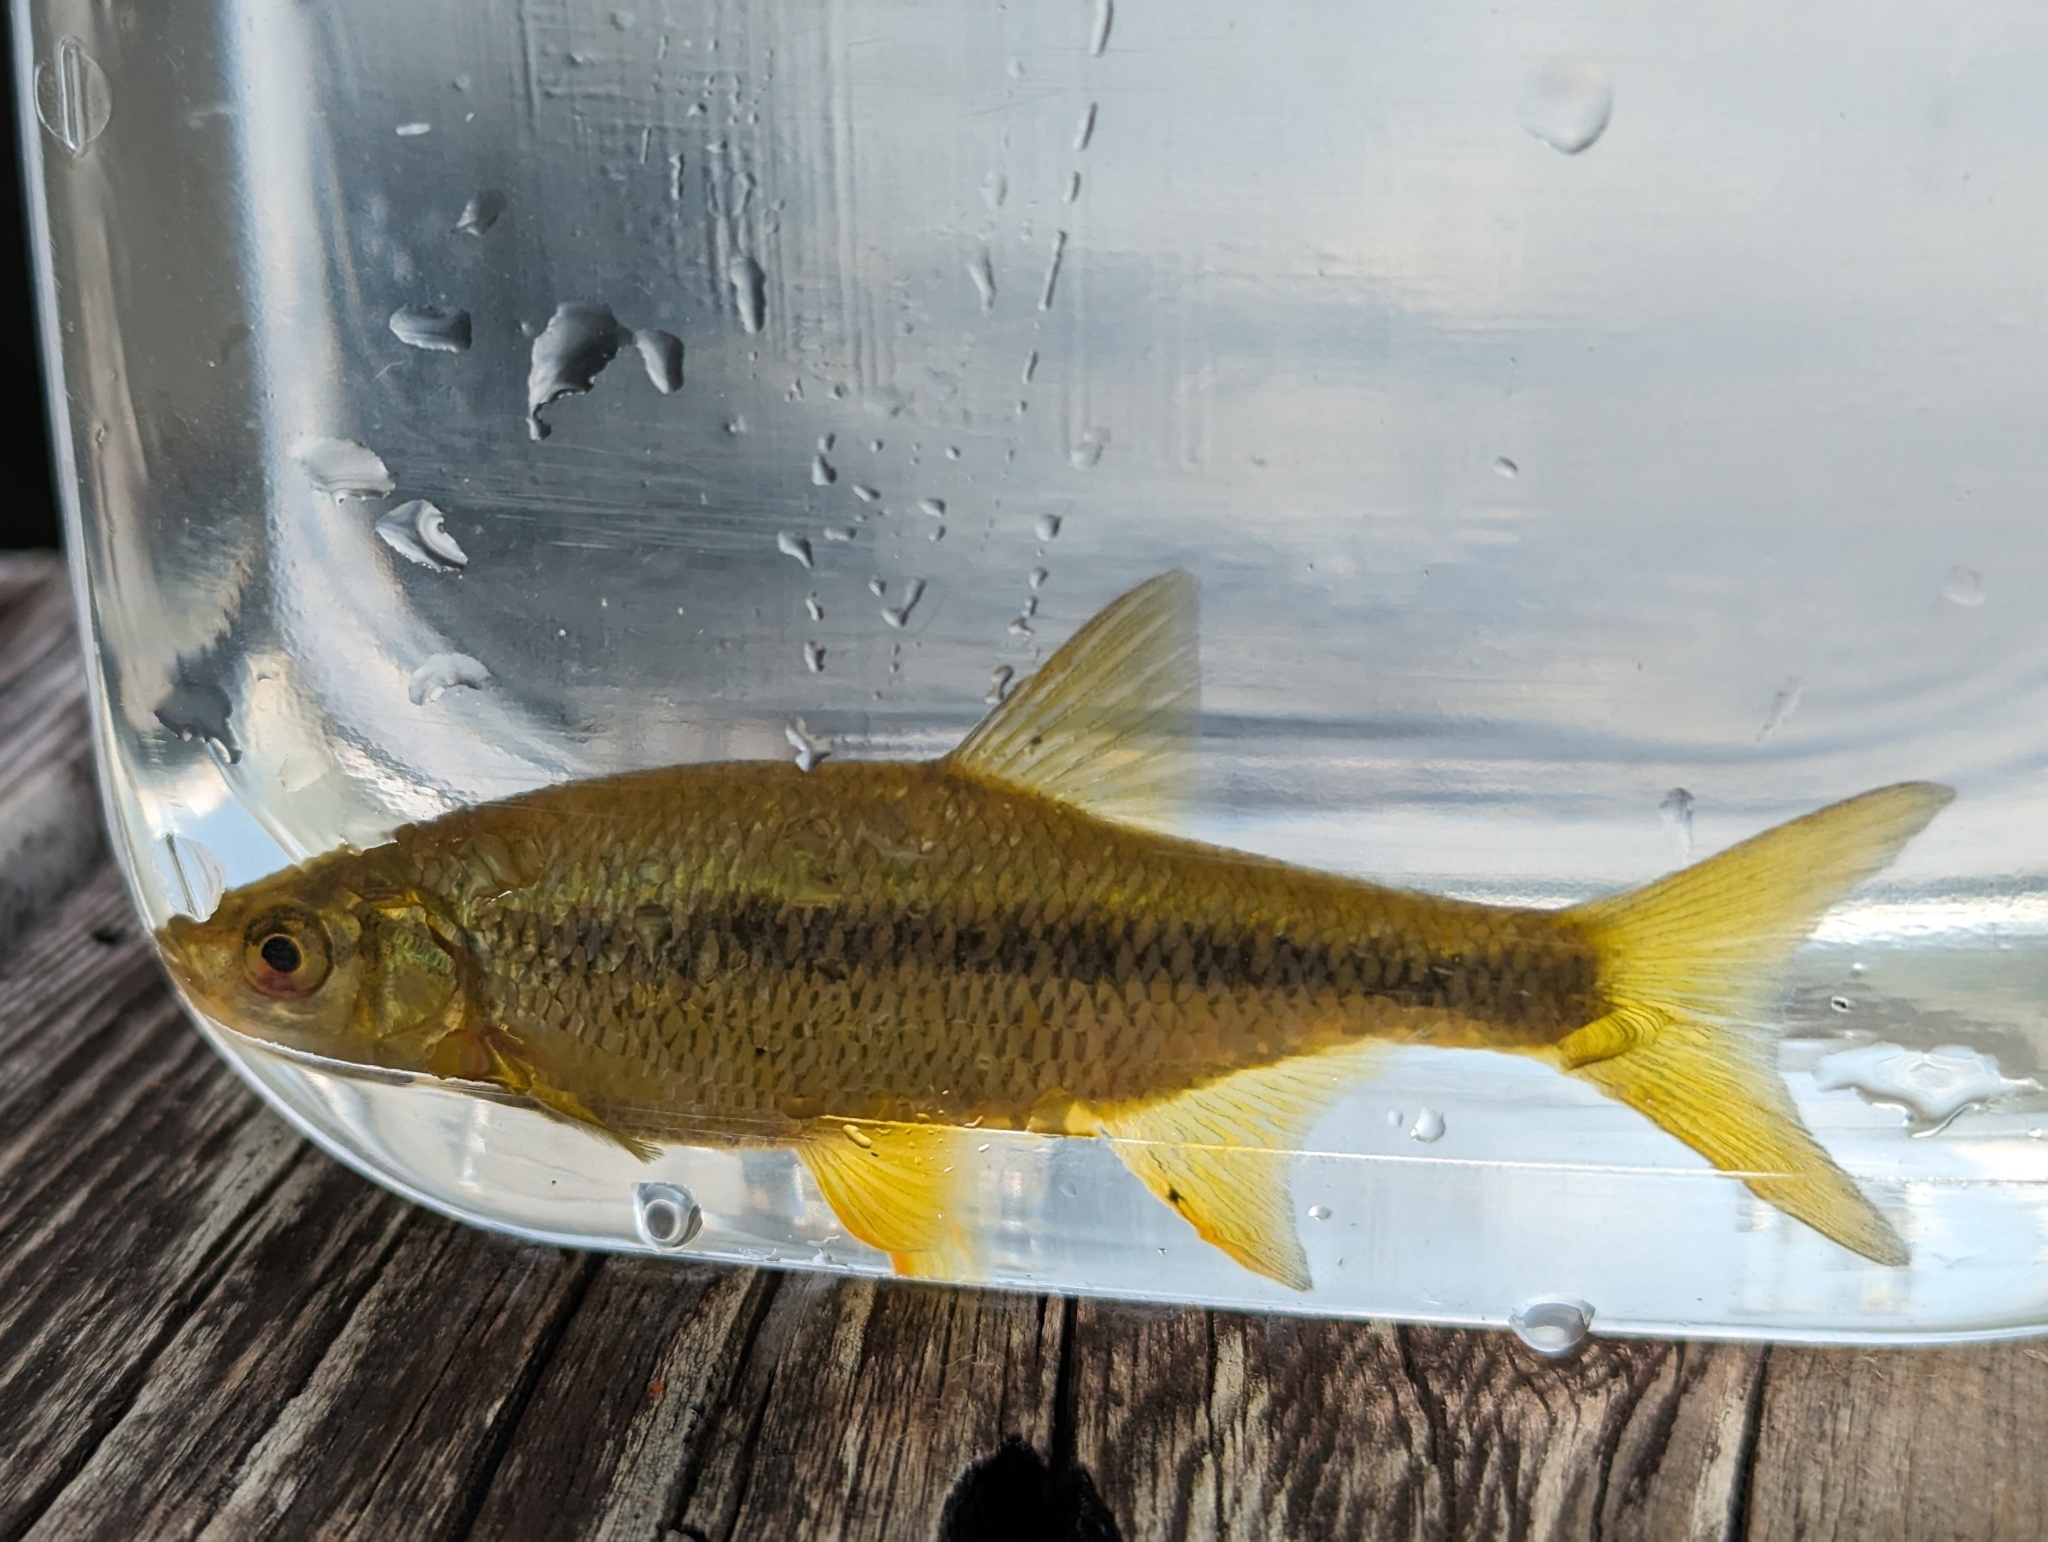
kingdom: Animalia
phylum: Chordata
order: Cypriniformes
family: Cyprinidae
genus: Notemigonus
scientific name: Notemigonus crysoleucas
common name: Golden shiner
